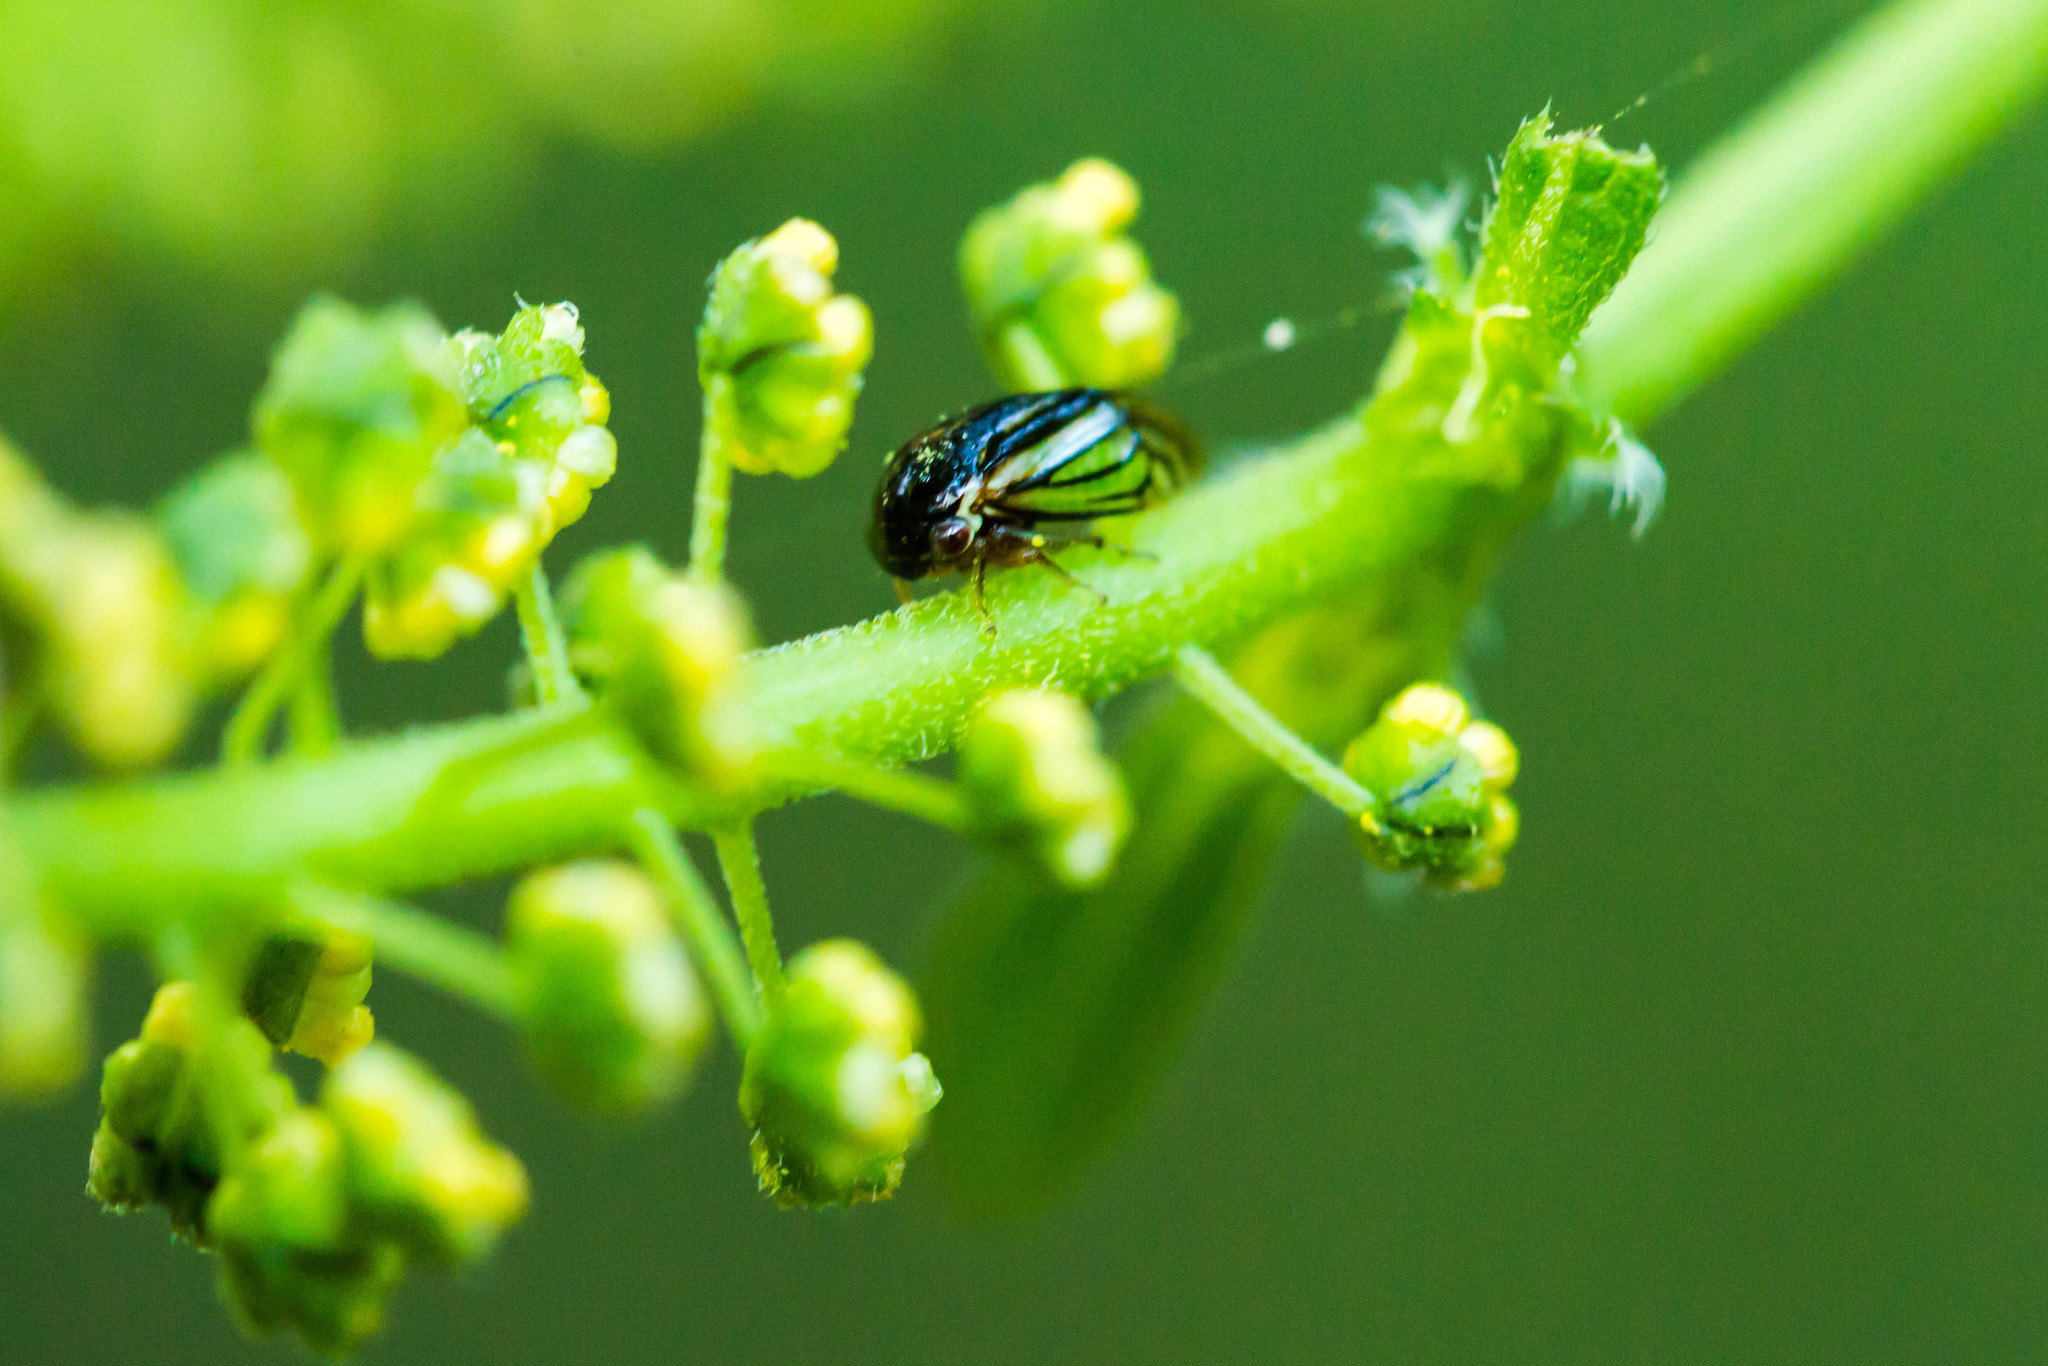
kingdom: Animalia
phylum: Arthropoda
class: Insecta
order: Hemiptera
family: Membracidae
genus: Acutalis
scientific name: Acutalis tartarea
